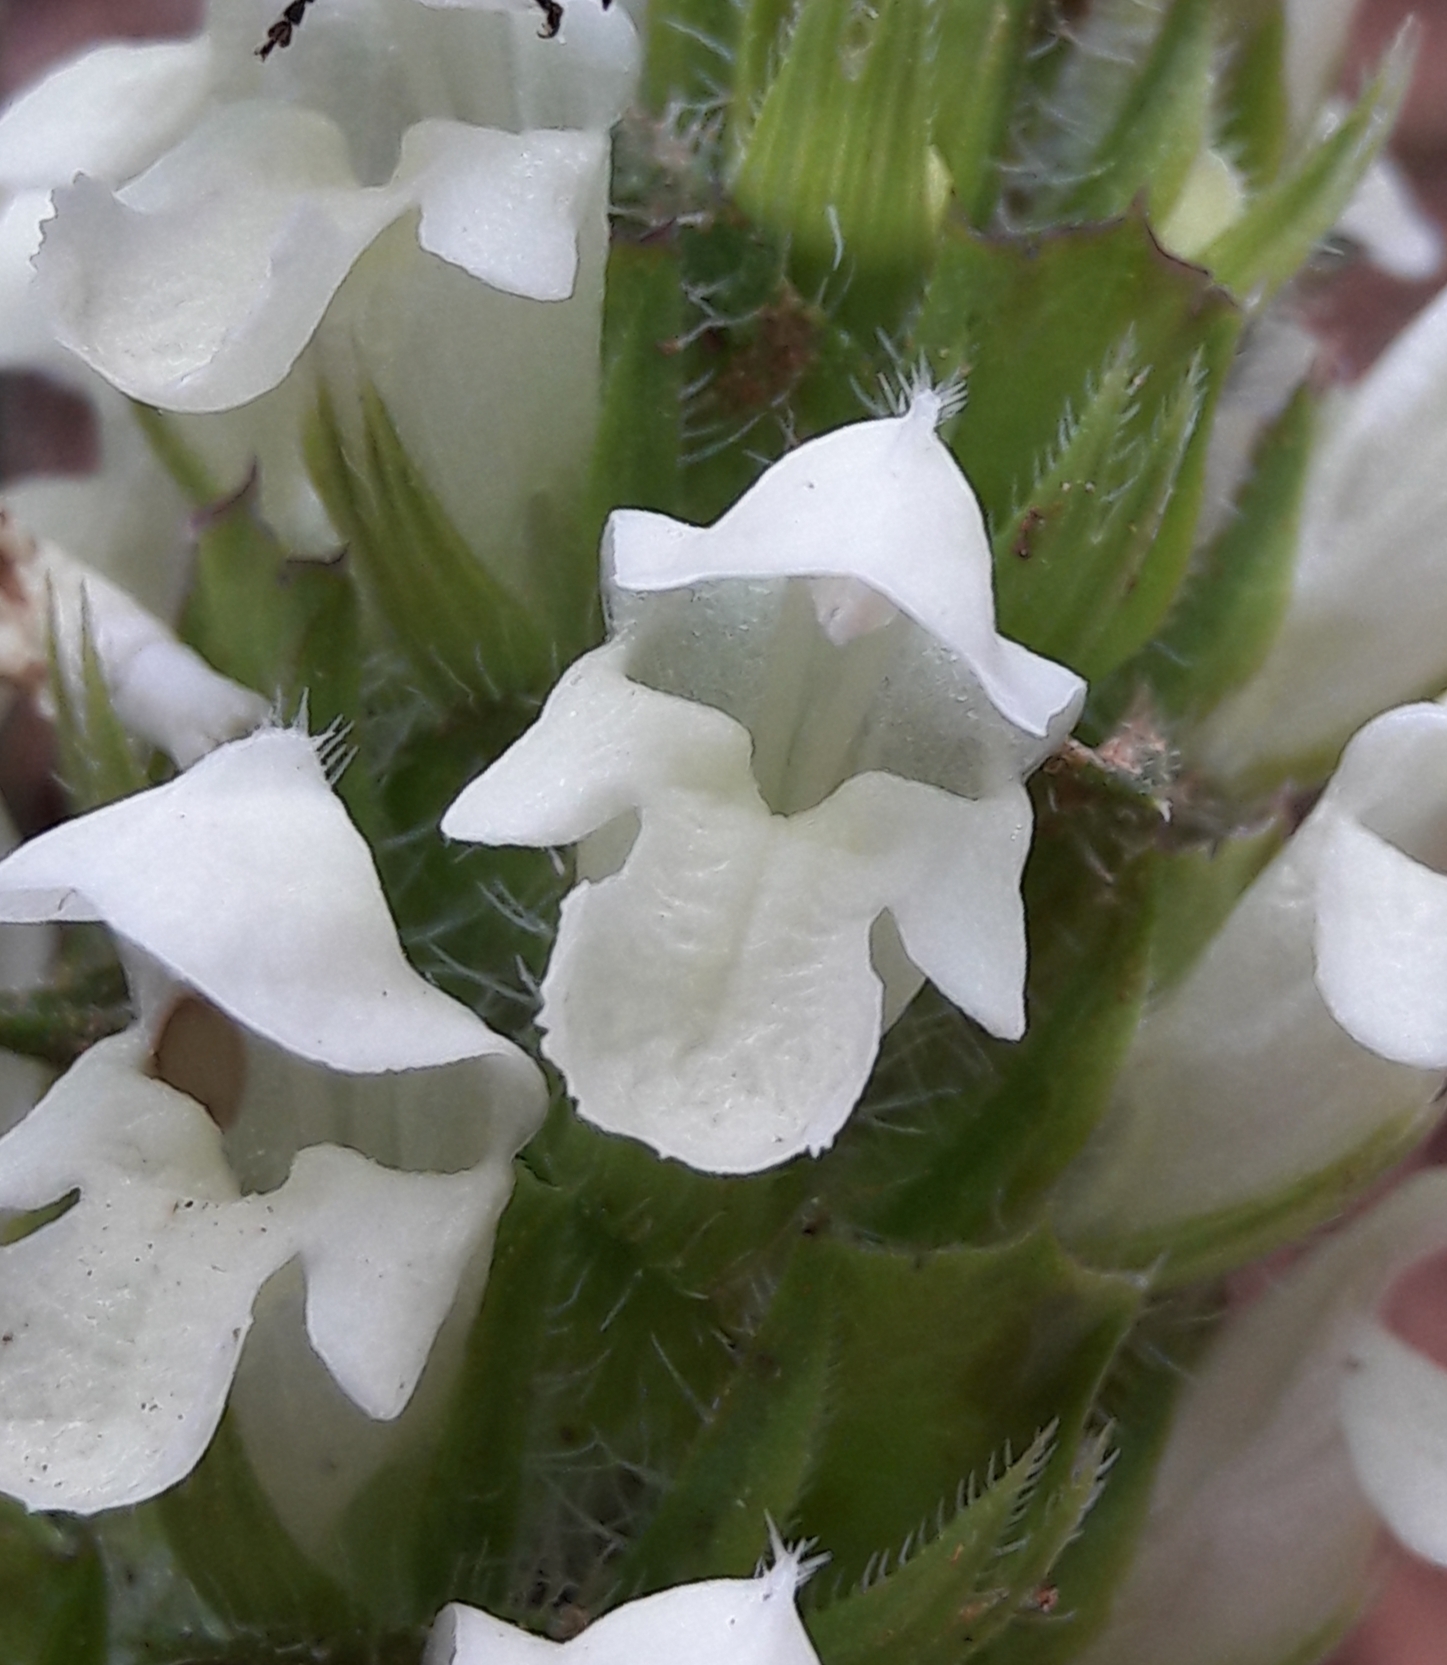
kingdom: Plantae
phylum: Tracheophyta
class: Magnoliopsida
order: Lamiales
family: Lamiaceae
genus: Prunella
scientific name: Prunella laciniata
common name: Cut-leaved selfheal
